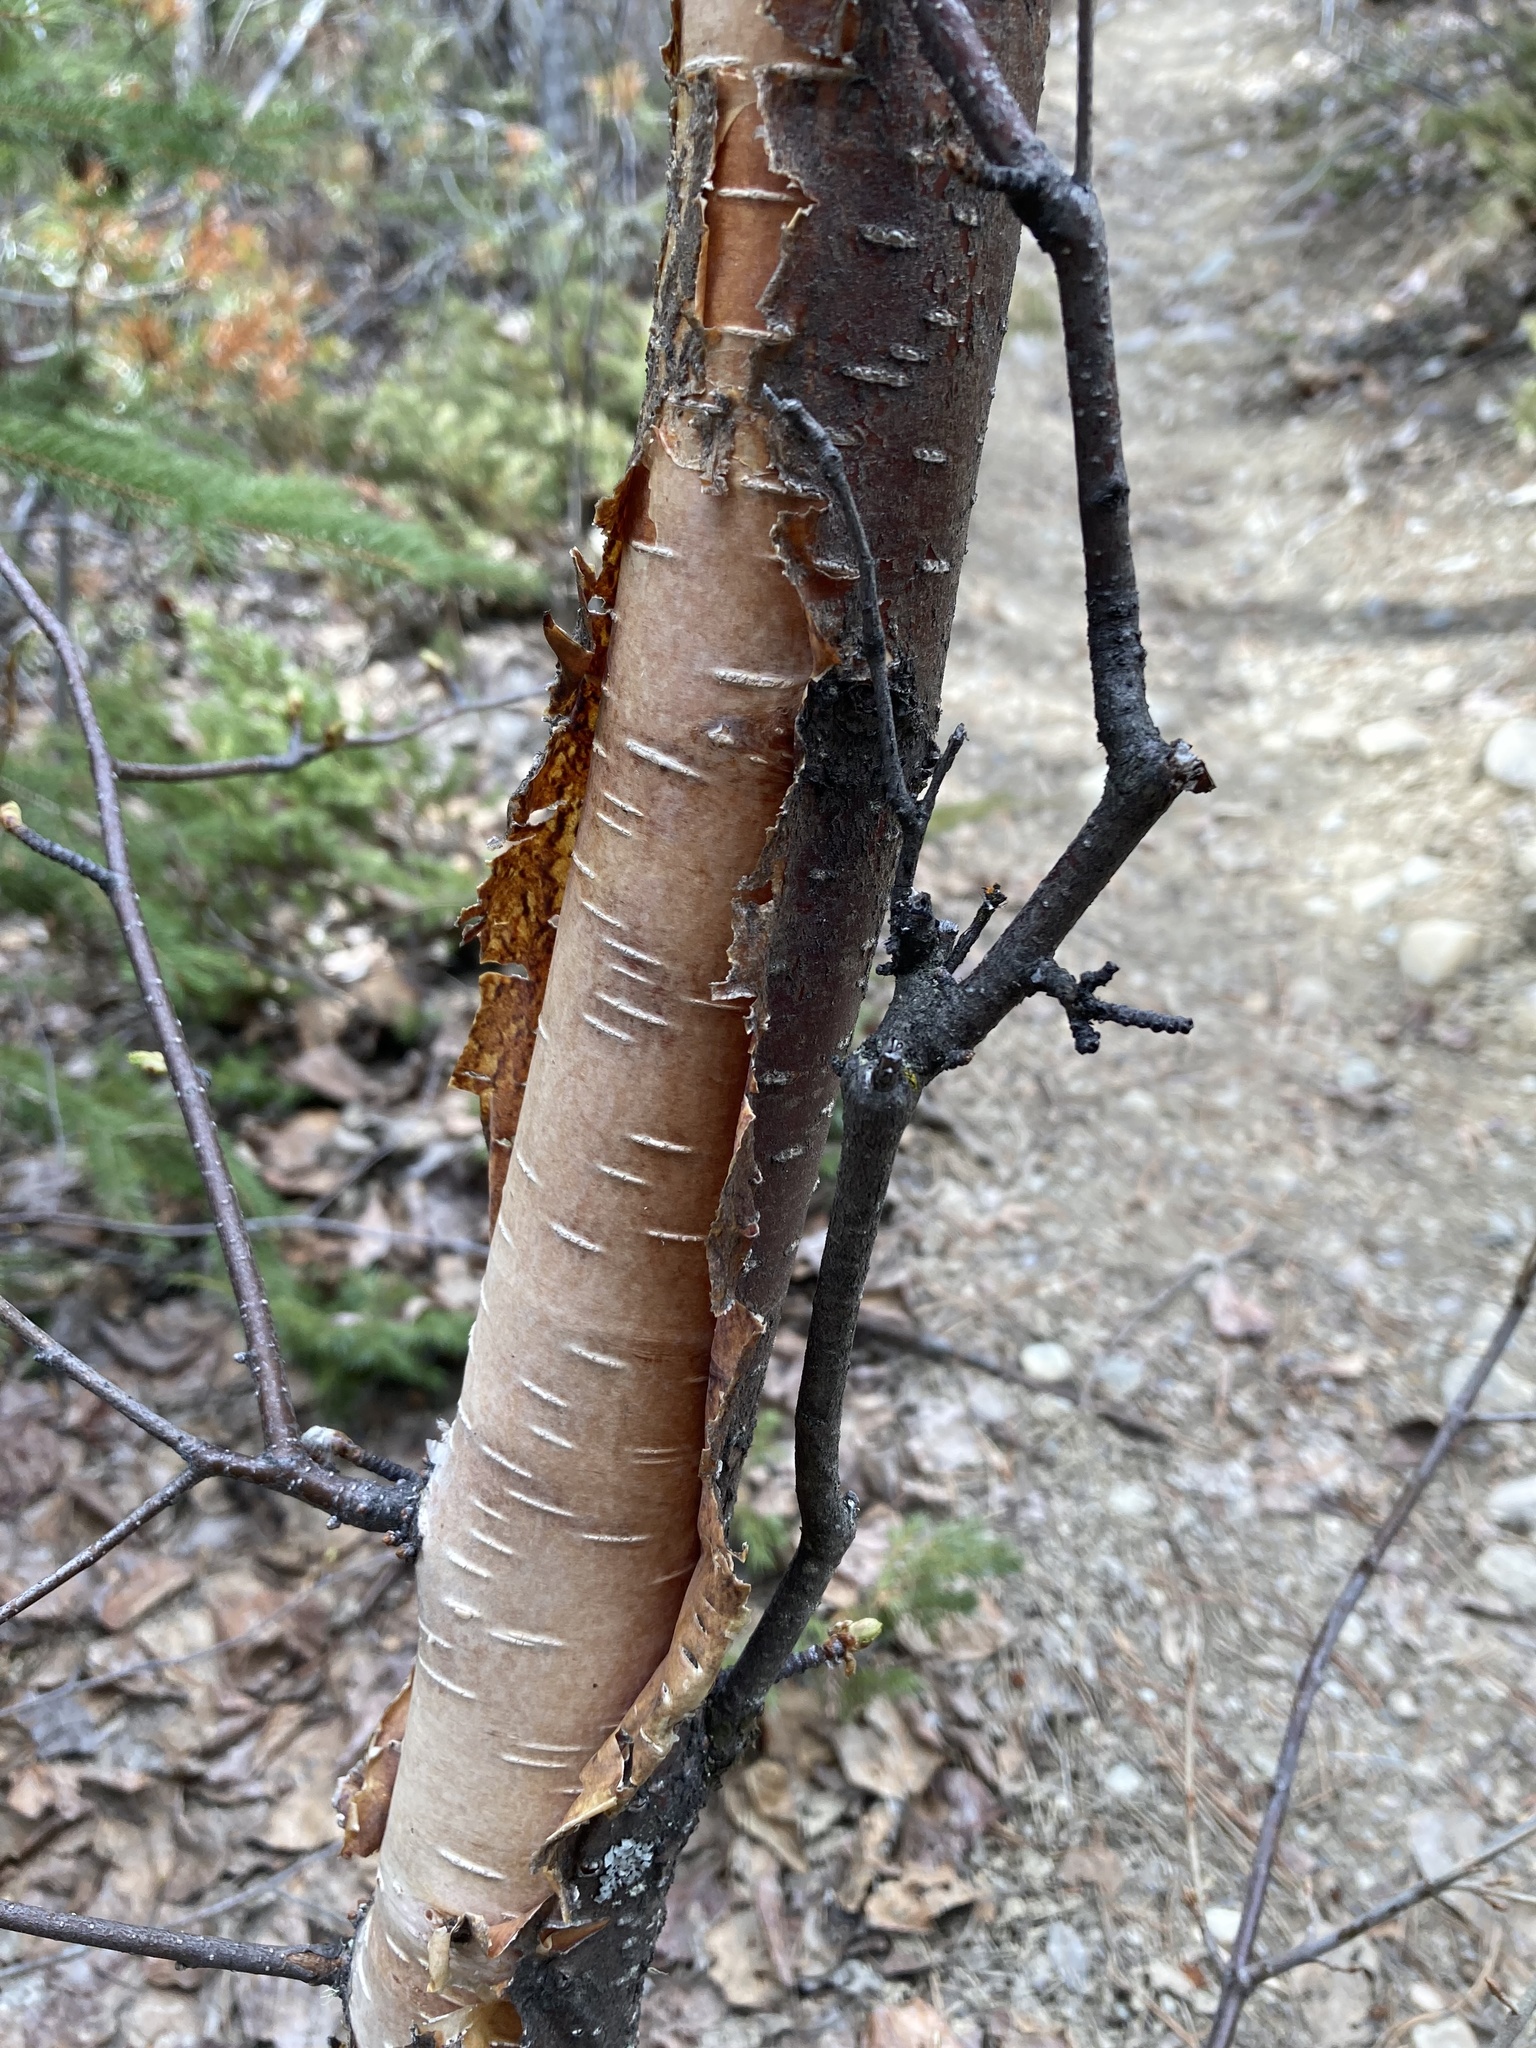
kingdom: Plantae
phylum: Tracheophyta
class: Magnoliopsida
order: Fagales
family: Betulaceae
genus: Betula
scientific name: Betula occidentalis
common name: River birch
